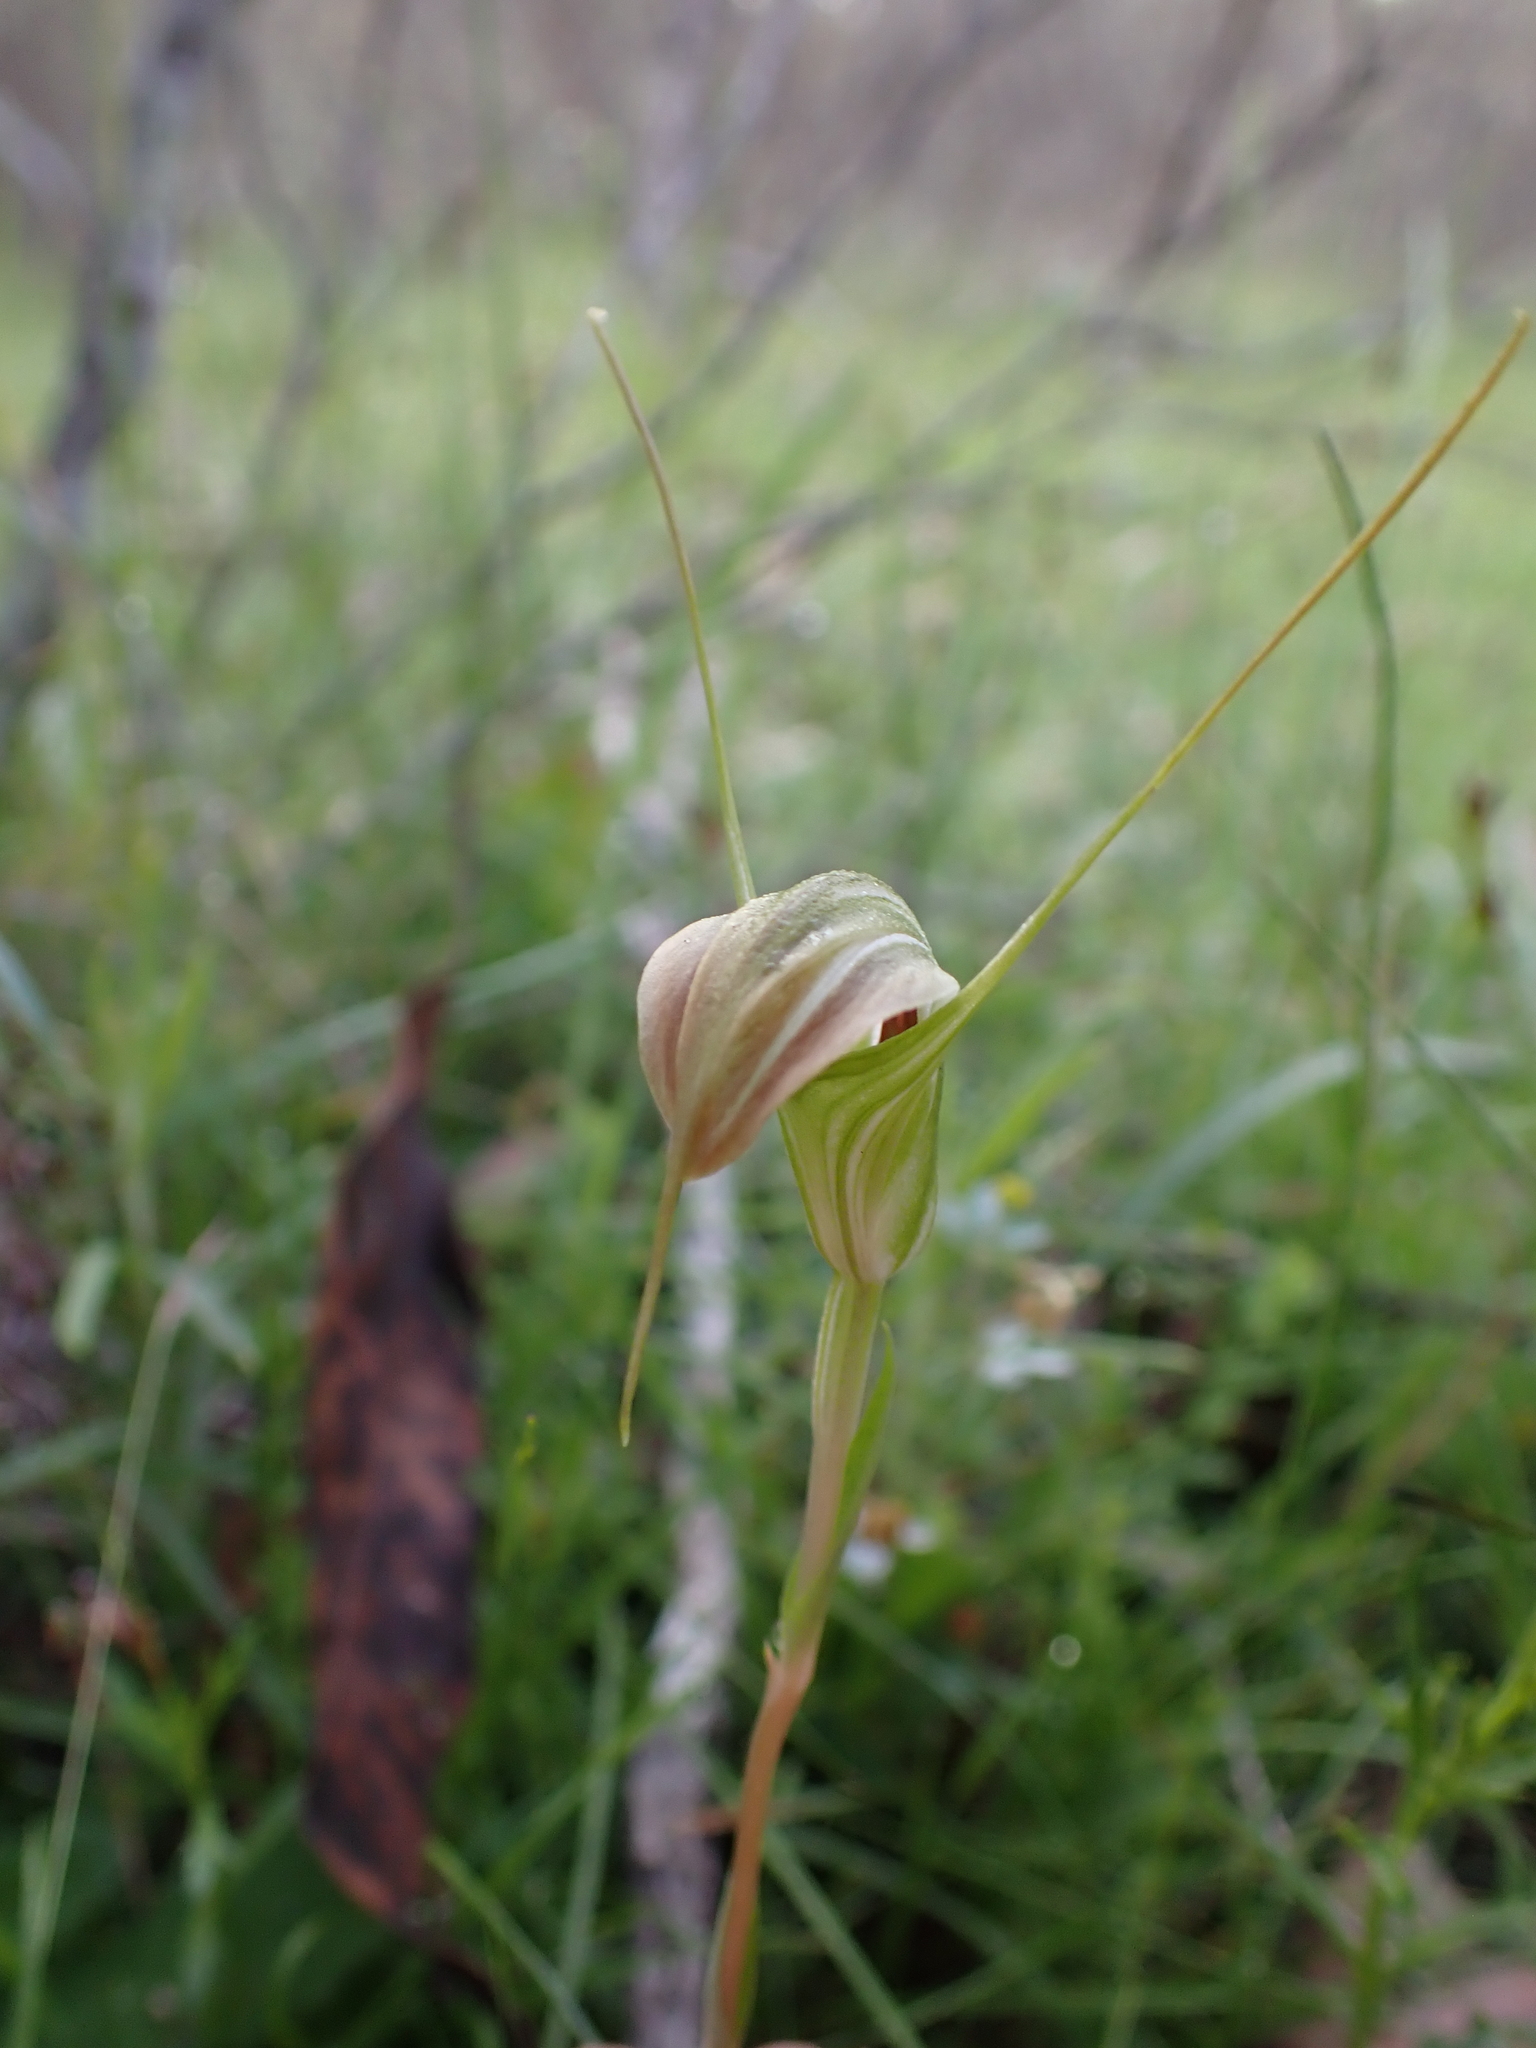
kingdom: Plantae
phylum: Tracheophyta
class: Liliopsida
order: Asparagales
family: Orchidaceae
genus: Pterostylis
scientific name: Pterostylis decurva
